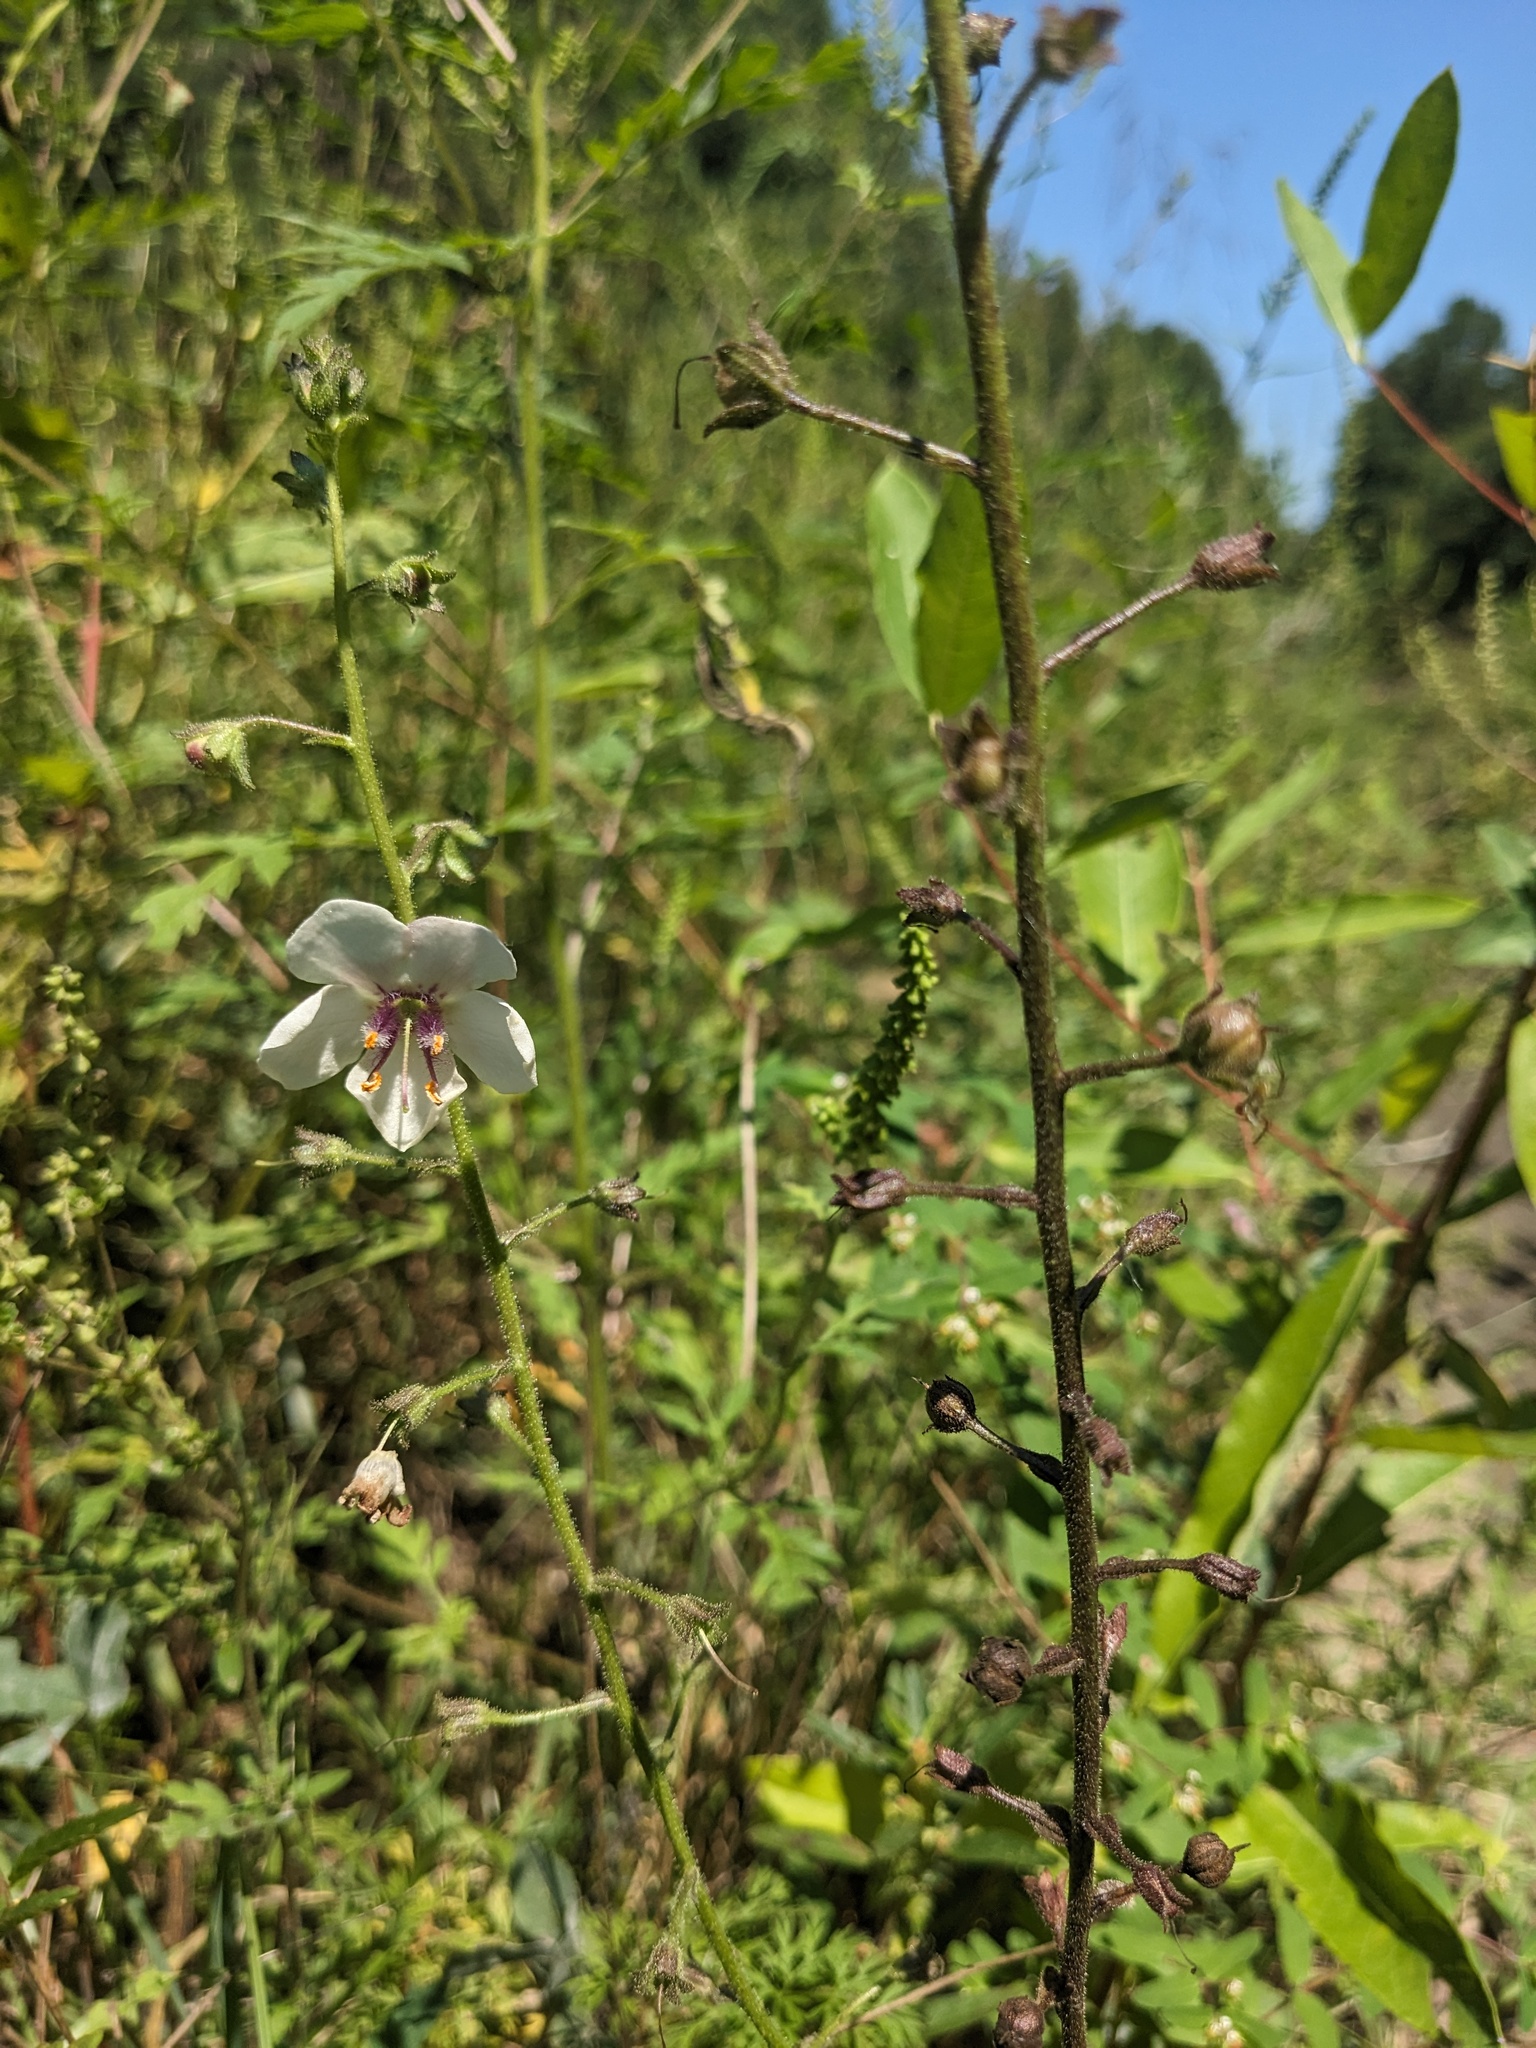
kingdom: Plantae
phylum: Tracheophyta
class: Magnoliopsida
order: Lamiales
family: Scrophulariaceae
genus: Verbascum
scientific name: Verbascum blattaria
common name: Moth mullein
